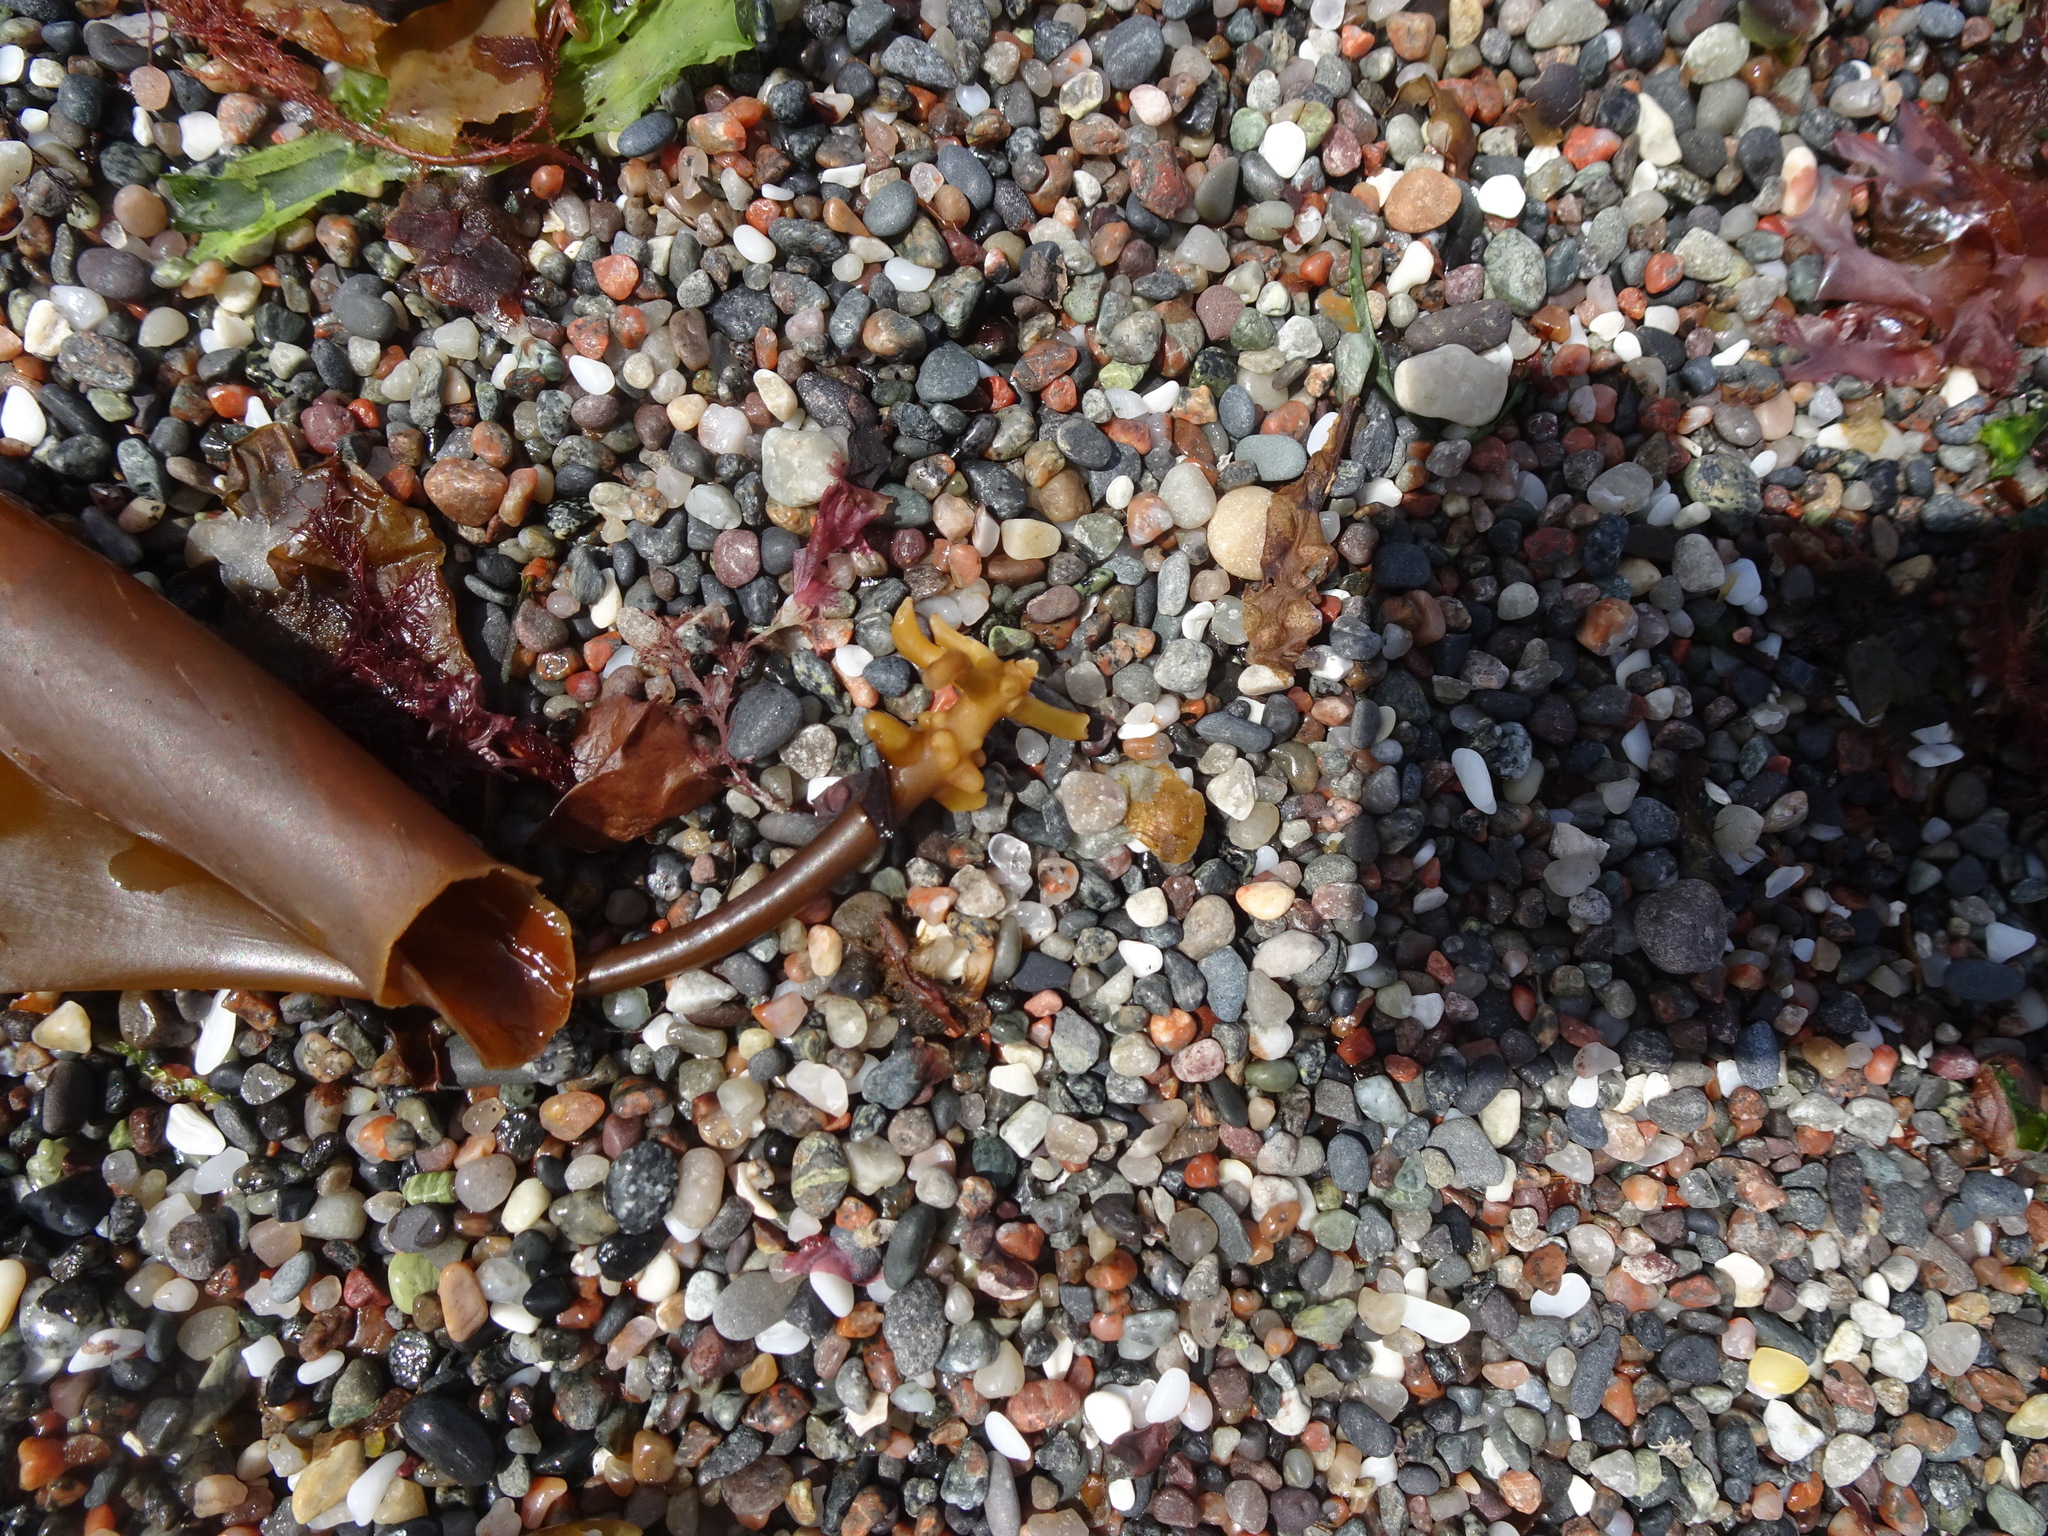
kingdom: Chromista
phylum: Ochrophyta
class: Phaeophyceae
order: Laminariales
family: Laminariaceae
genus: Saccharina
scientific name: Saccharina latissima
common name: Poor man's weather glass
